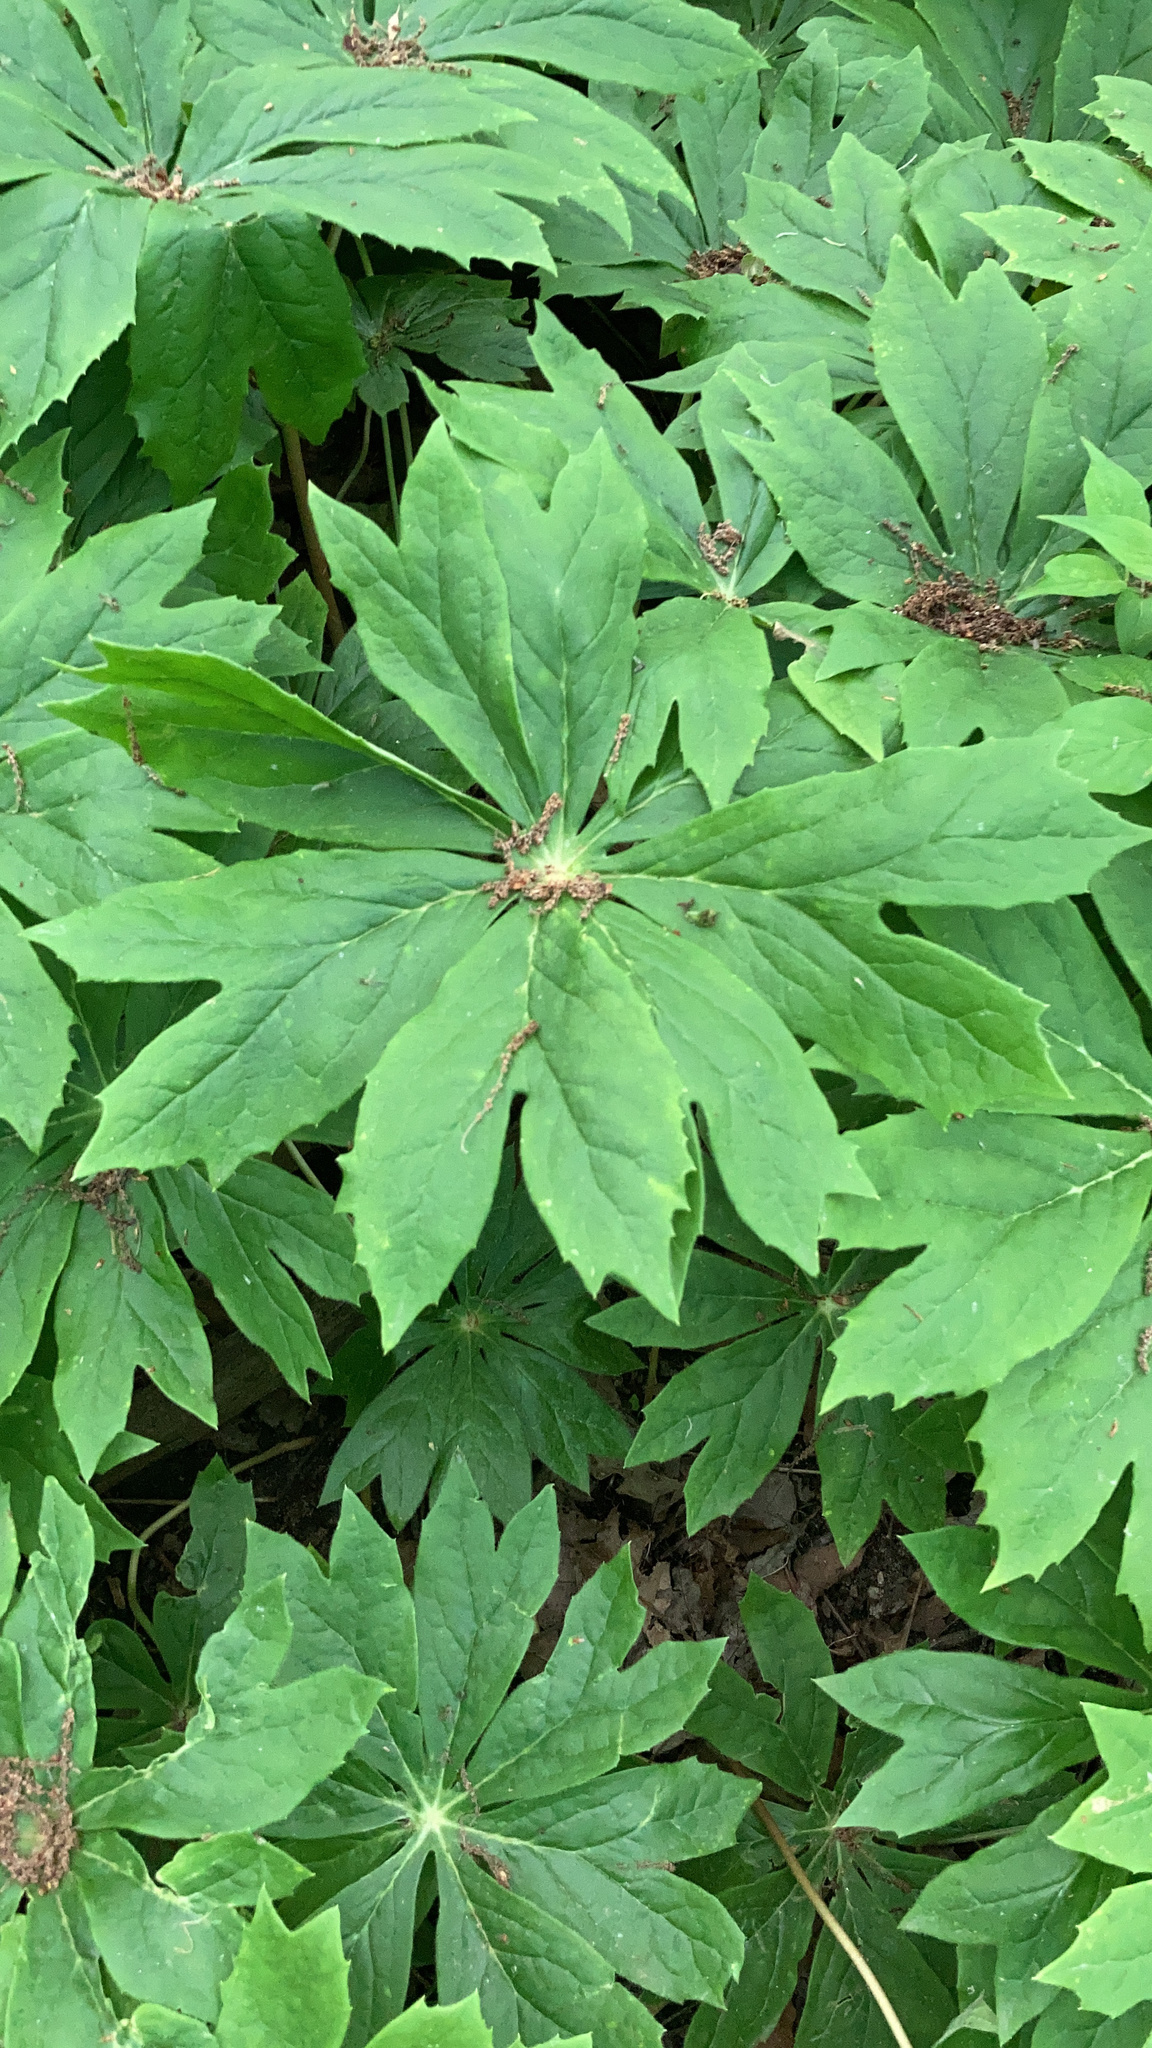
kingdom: Plantae
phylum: Tracheophyta
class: Magnoliopsida
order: Ranunculales
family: Berberidaceae
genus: Podophyllum
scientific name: Podophyllum peltatum
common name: Wild mandrake
